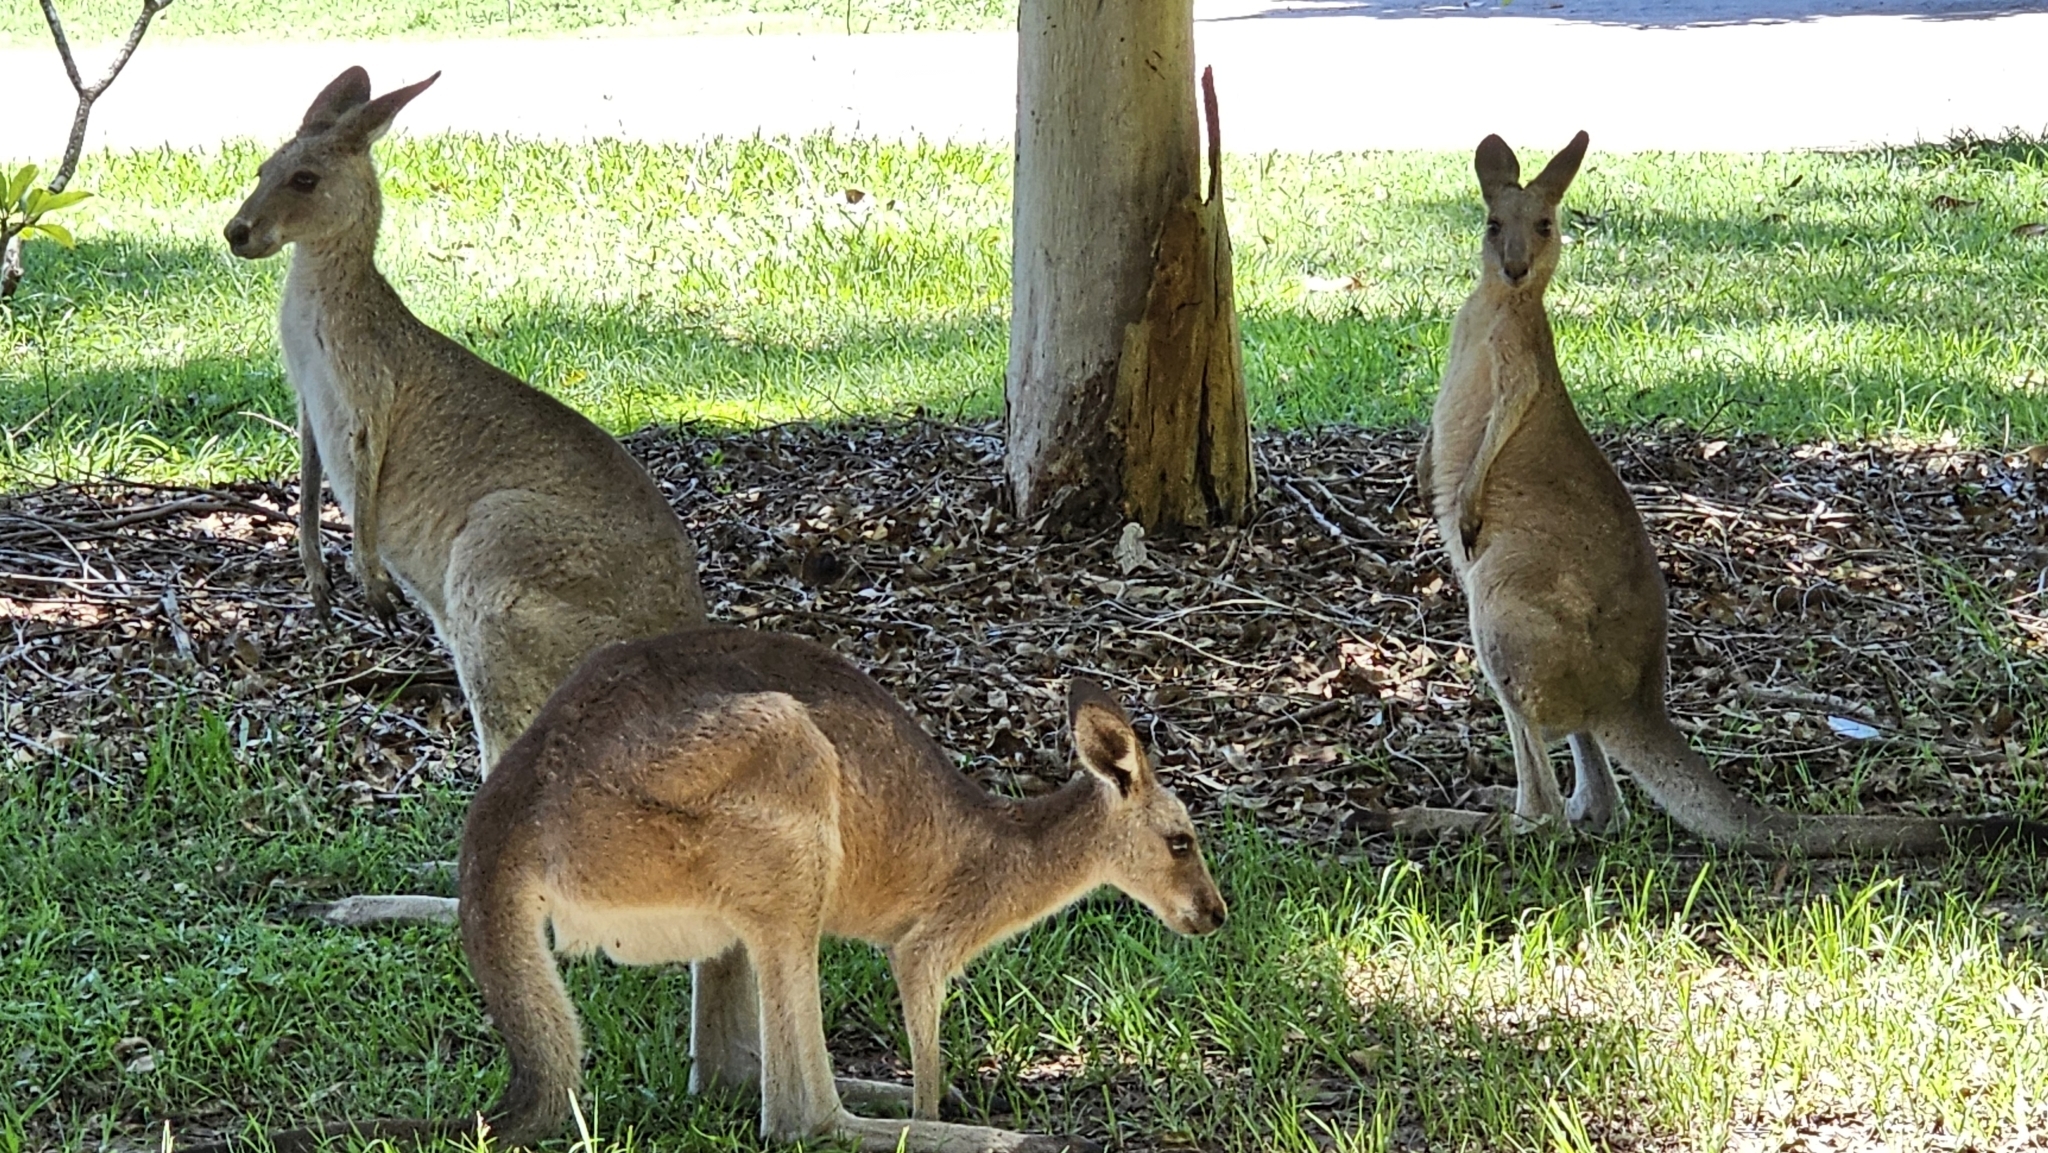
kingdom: Animalia
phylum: Chordata
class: Mammalia
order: Diprotodontia
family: Macropodidae
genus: Macropus
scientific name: Macropus giganteus
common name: Eastern grey kangaroo
